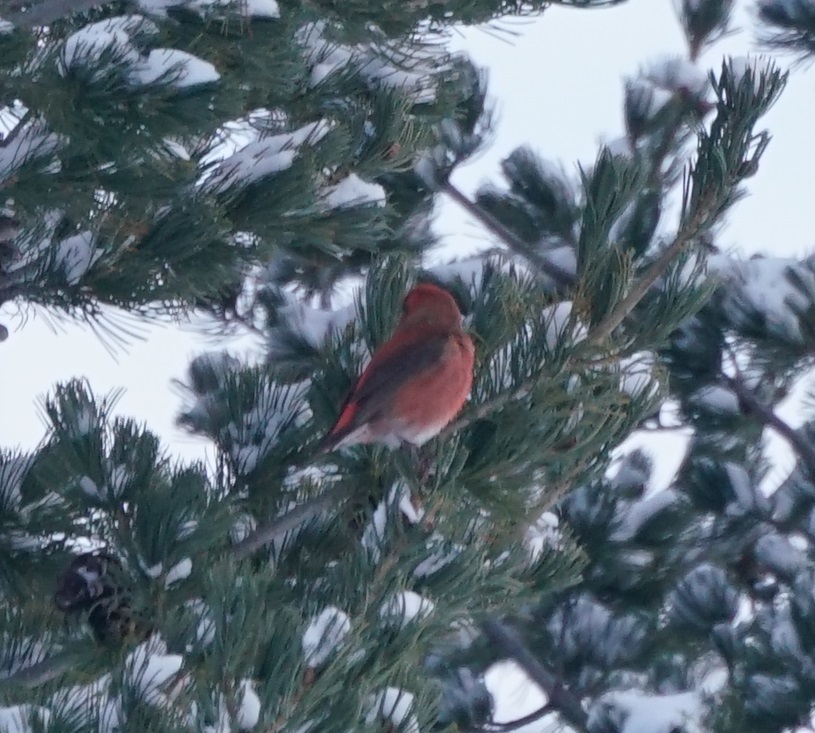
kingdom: Animalia
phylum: Chordata
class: Aves
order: Passeriformes
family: Fringillidae
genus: Loxia
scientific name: Loxia curvirostra
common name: Red crossbill
